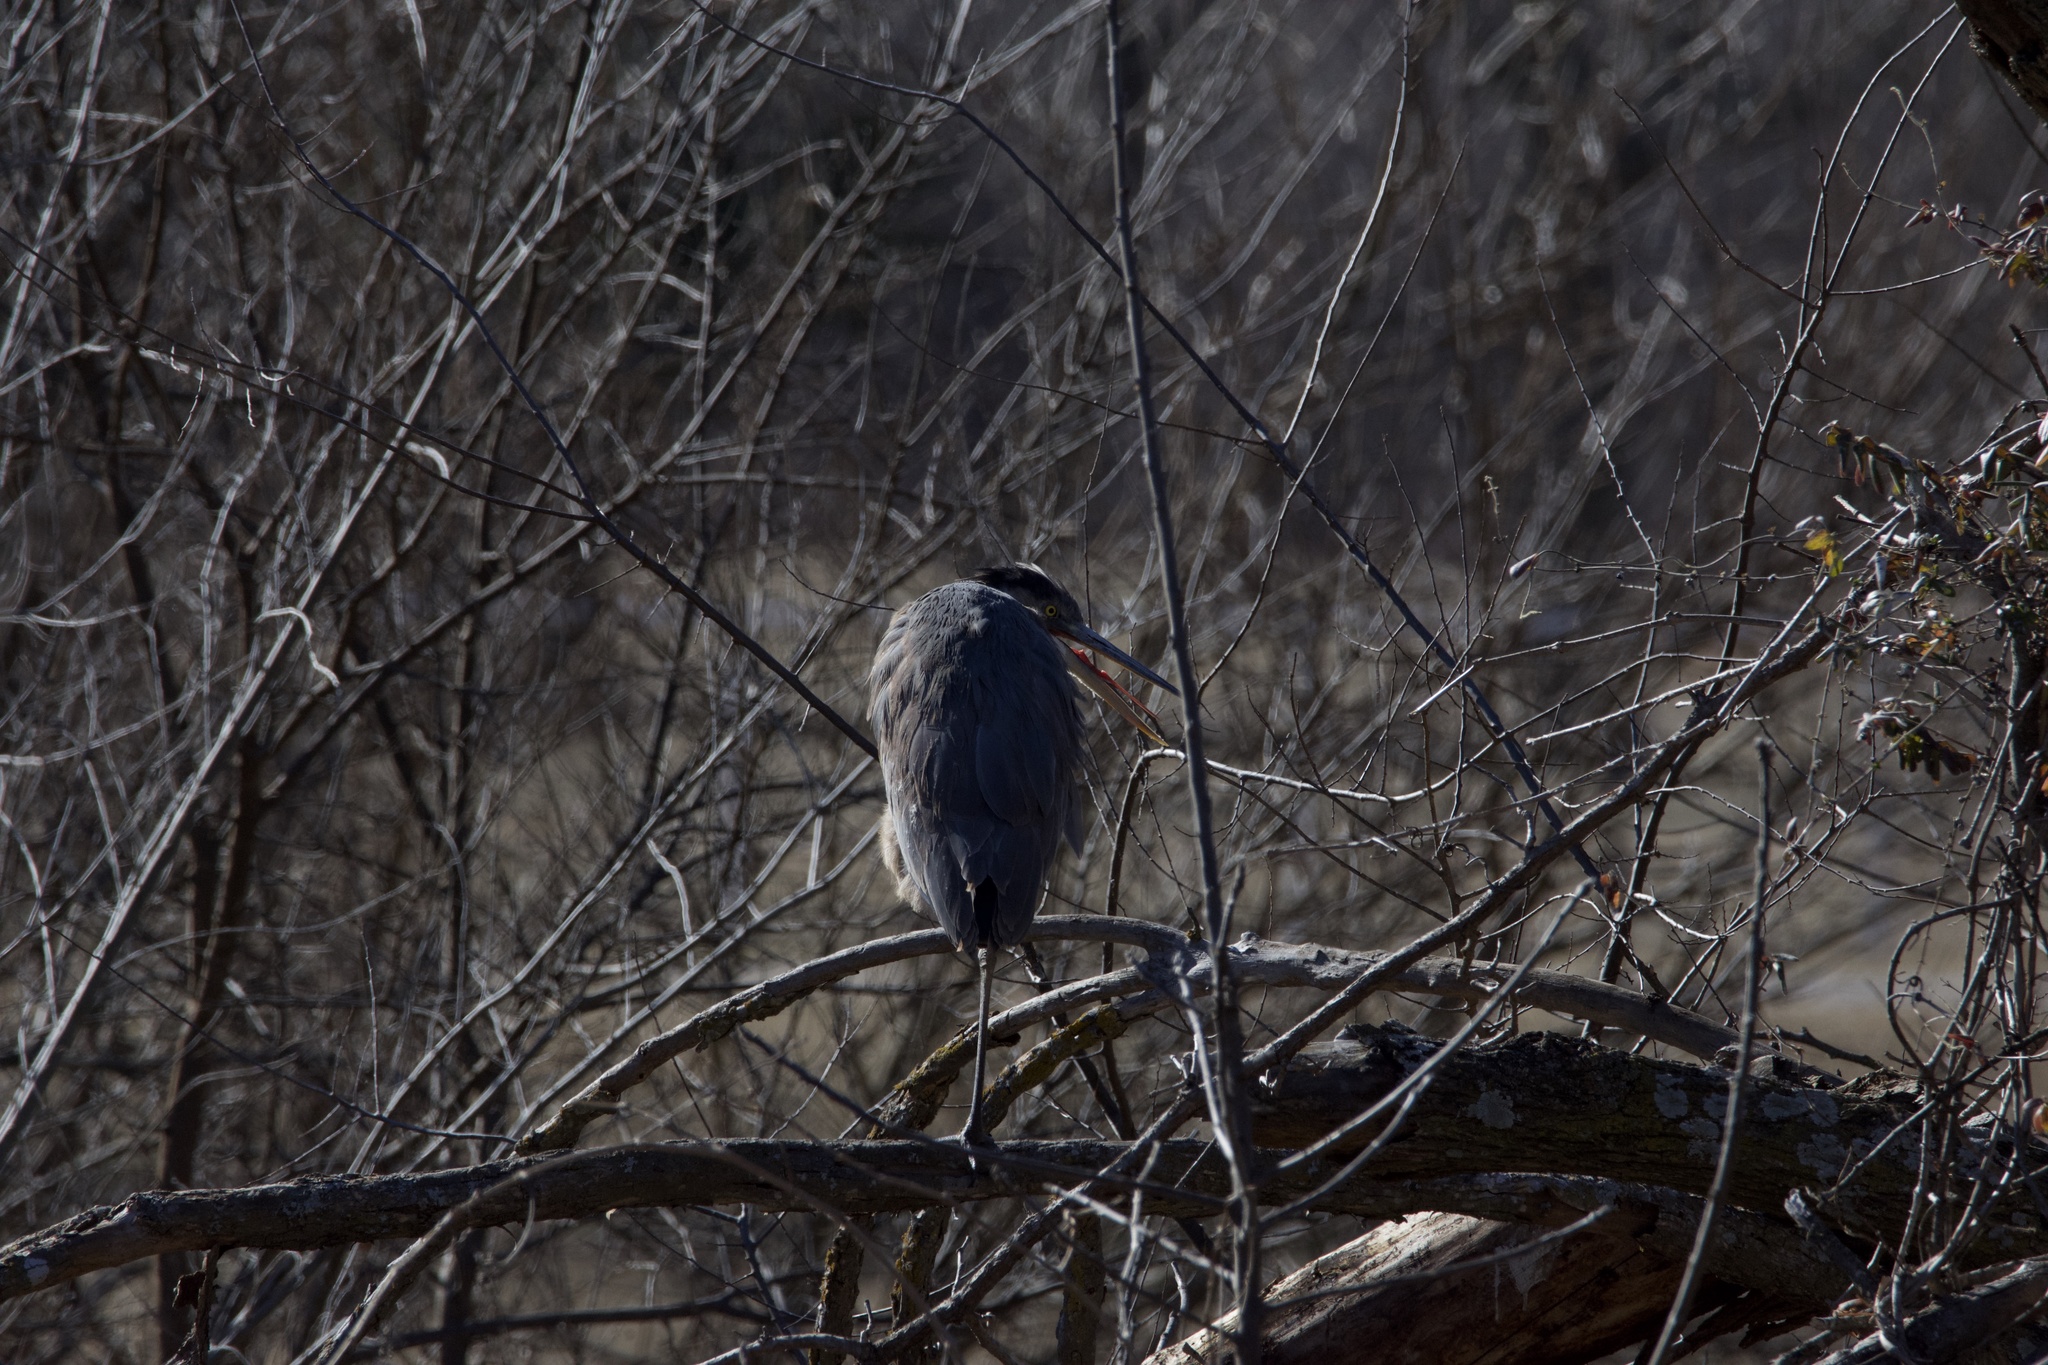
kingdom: Animalia
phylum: Chordata
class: Aves
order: Pelecaniformes
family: Ardeidae
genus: Ardea
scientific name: Ardea herodias
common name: Great blue heron
